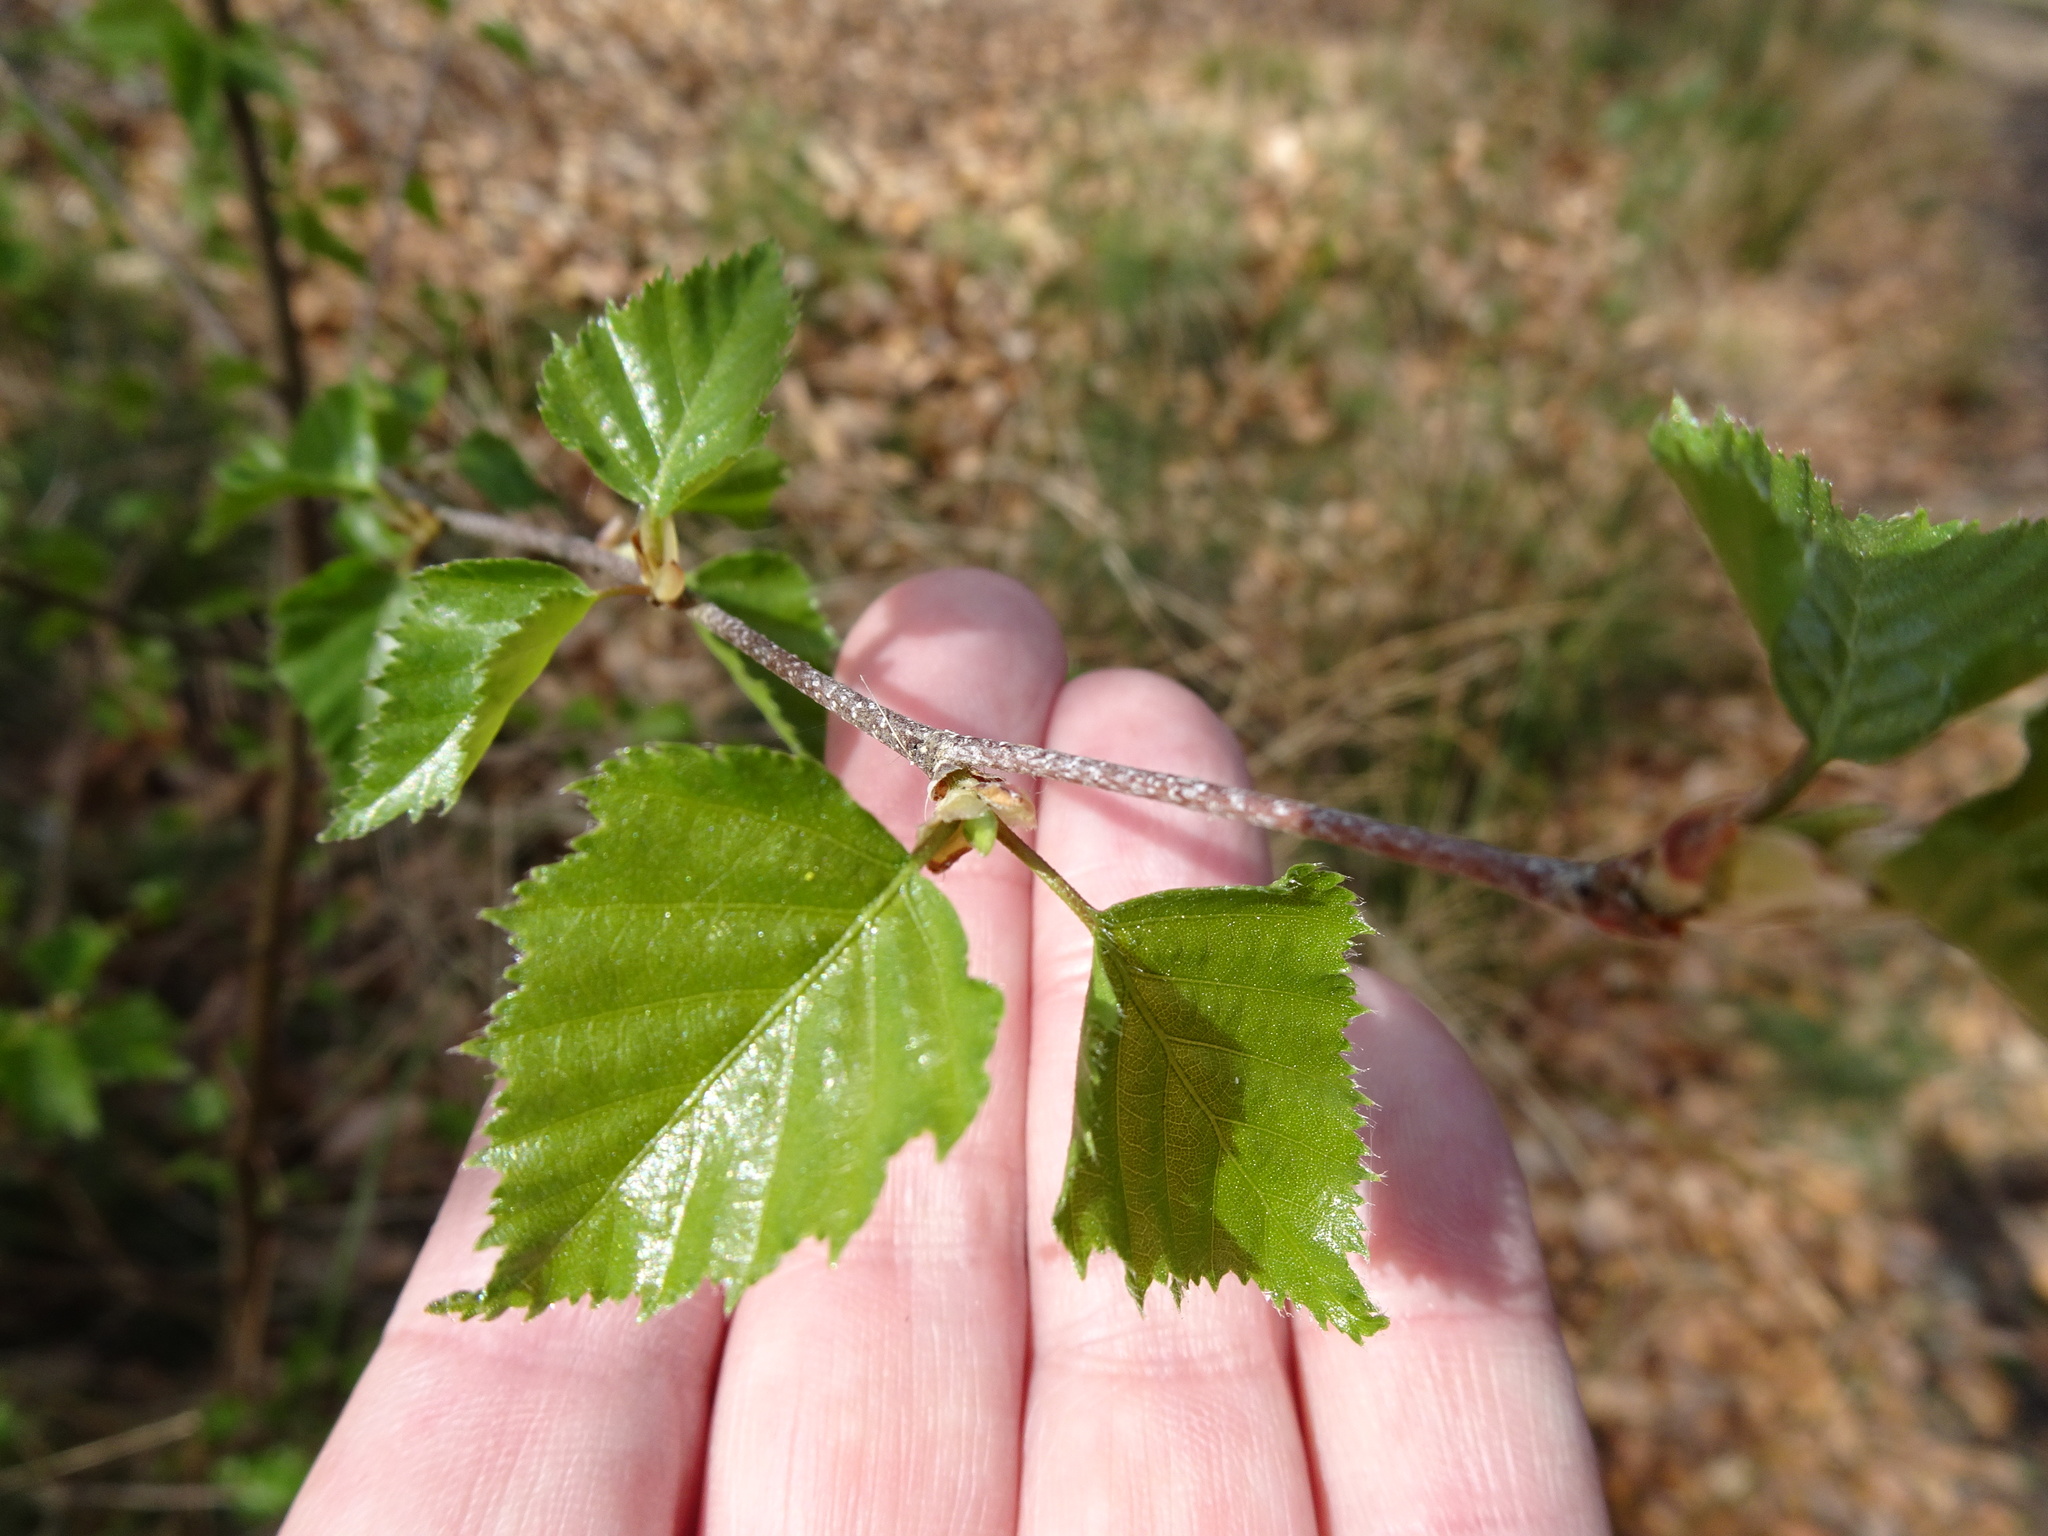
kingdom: Plantae
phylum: Tracheophyta
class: Magnoliopsida
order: Fagales
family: Betulaceae
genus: Betula
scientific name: Betula pendula
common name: Silver birch
